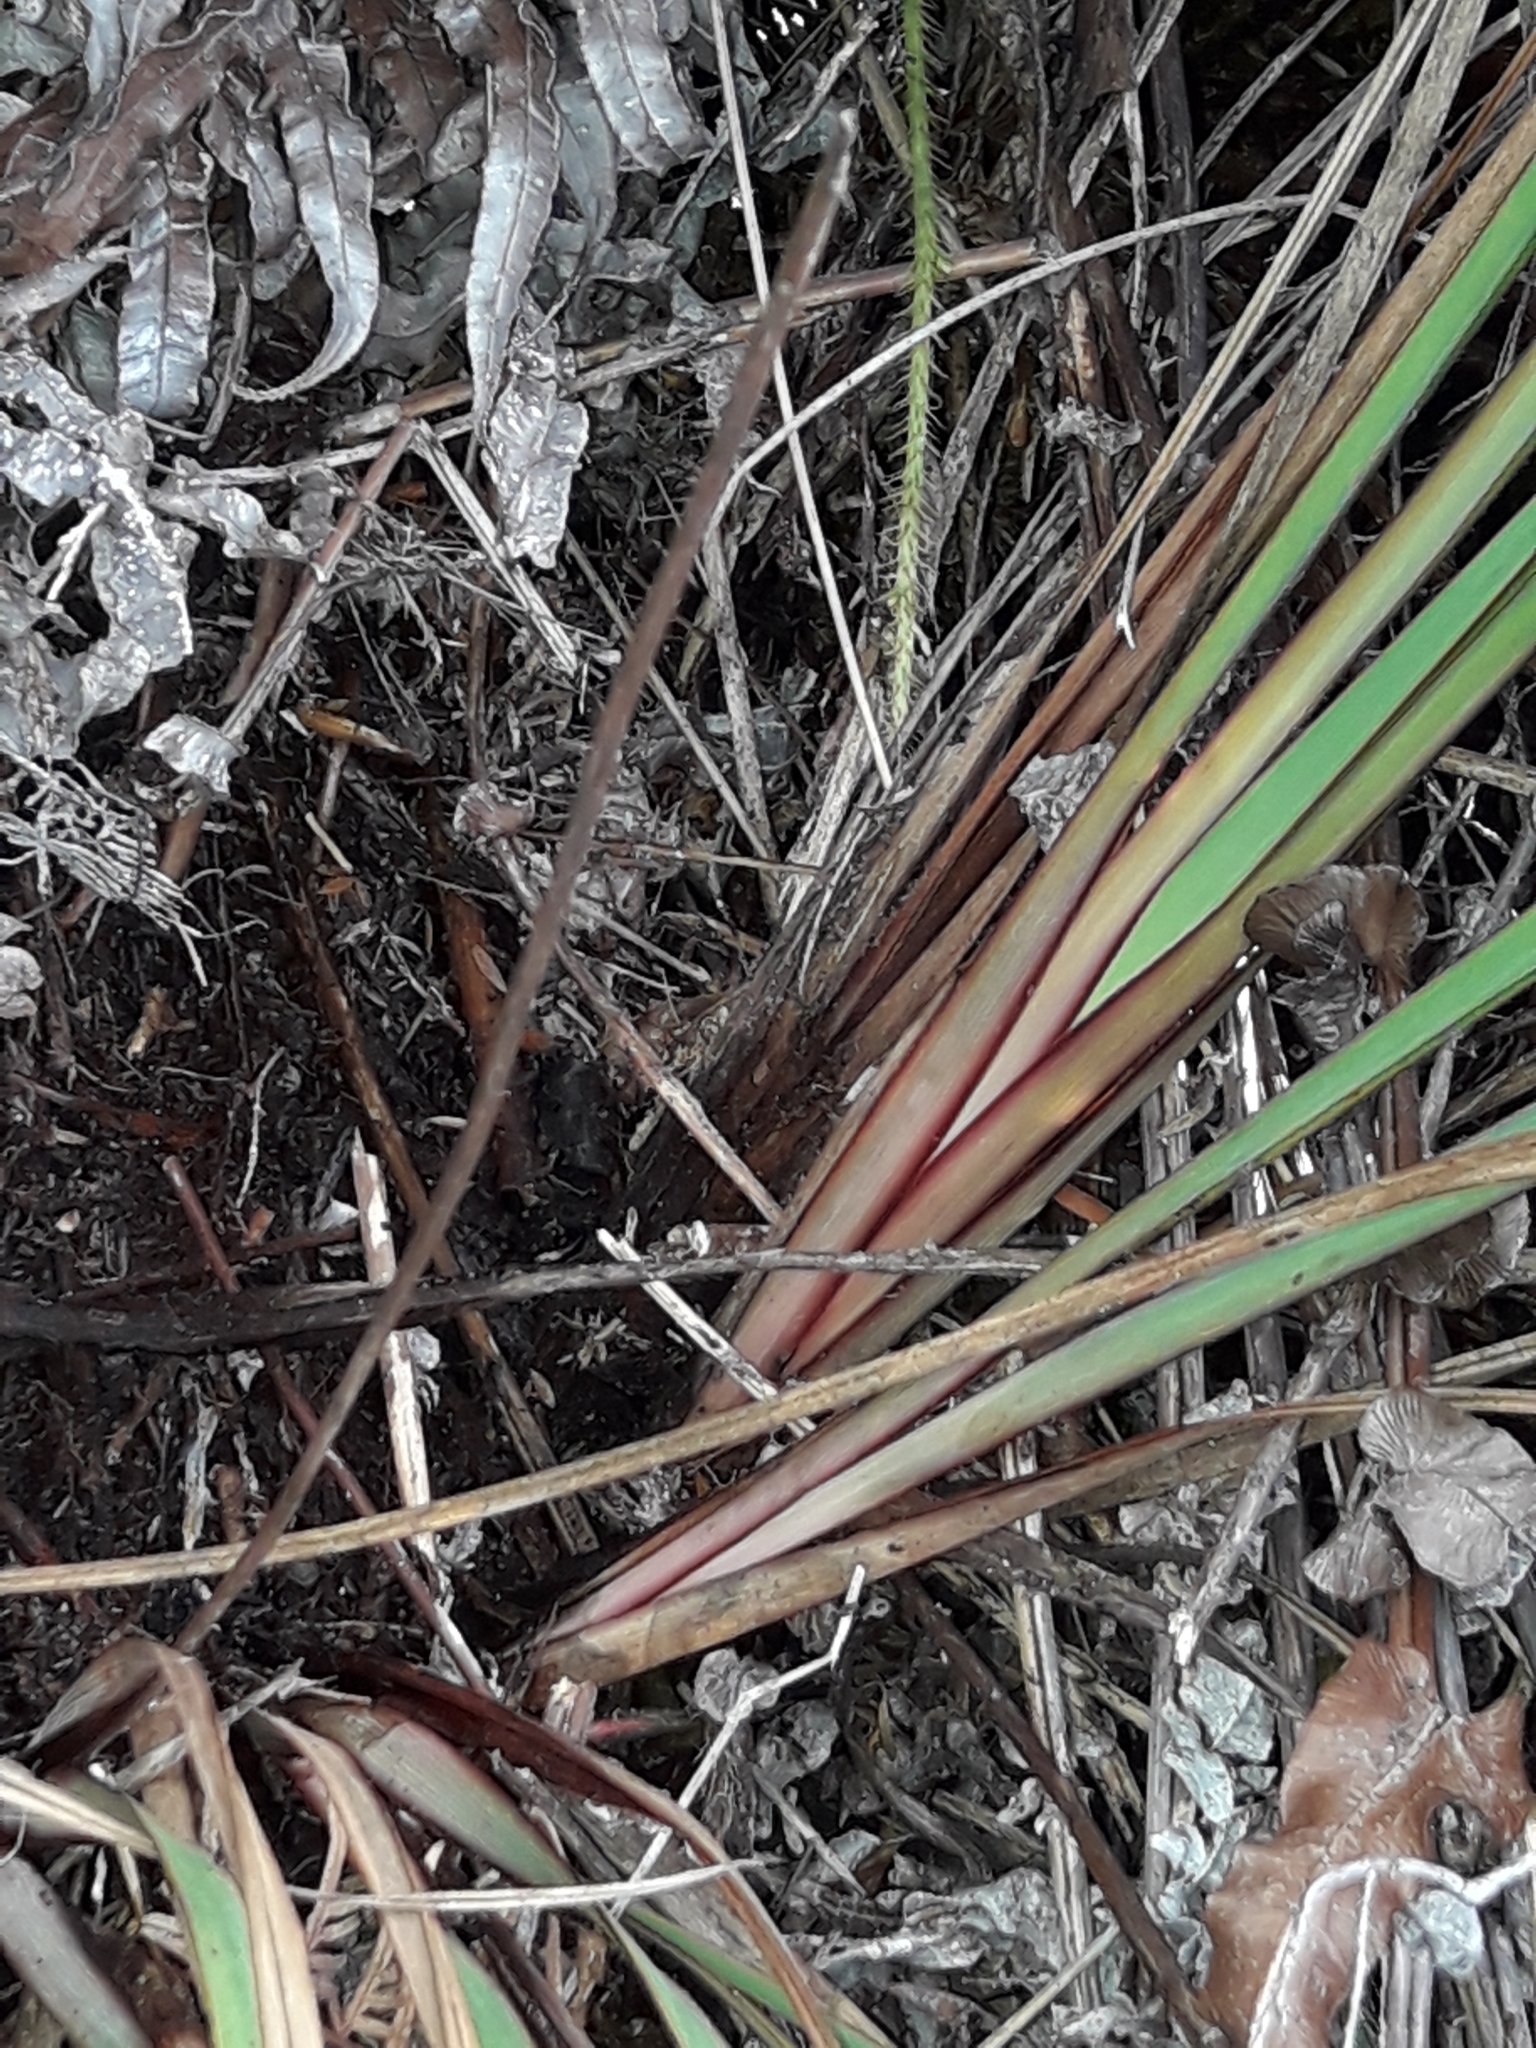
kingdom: Plantae
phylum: Tracheophyta
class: Liliopsida
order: Asparagales
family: Asphodelaceae
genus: Dianella
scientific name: Dianella haematica
